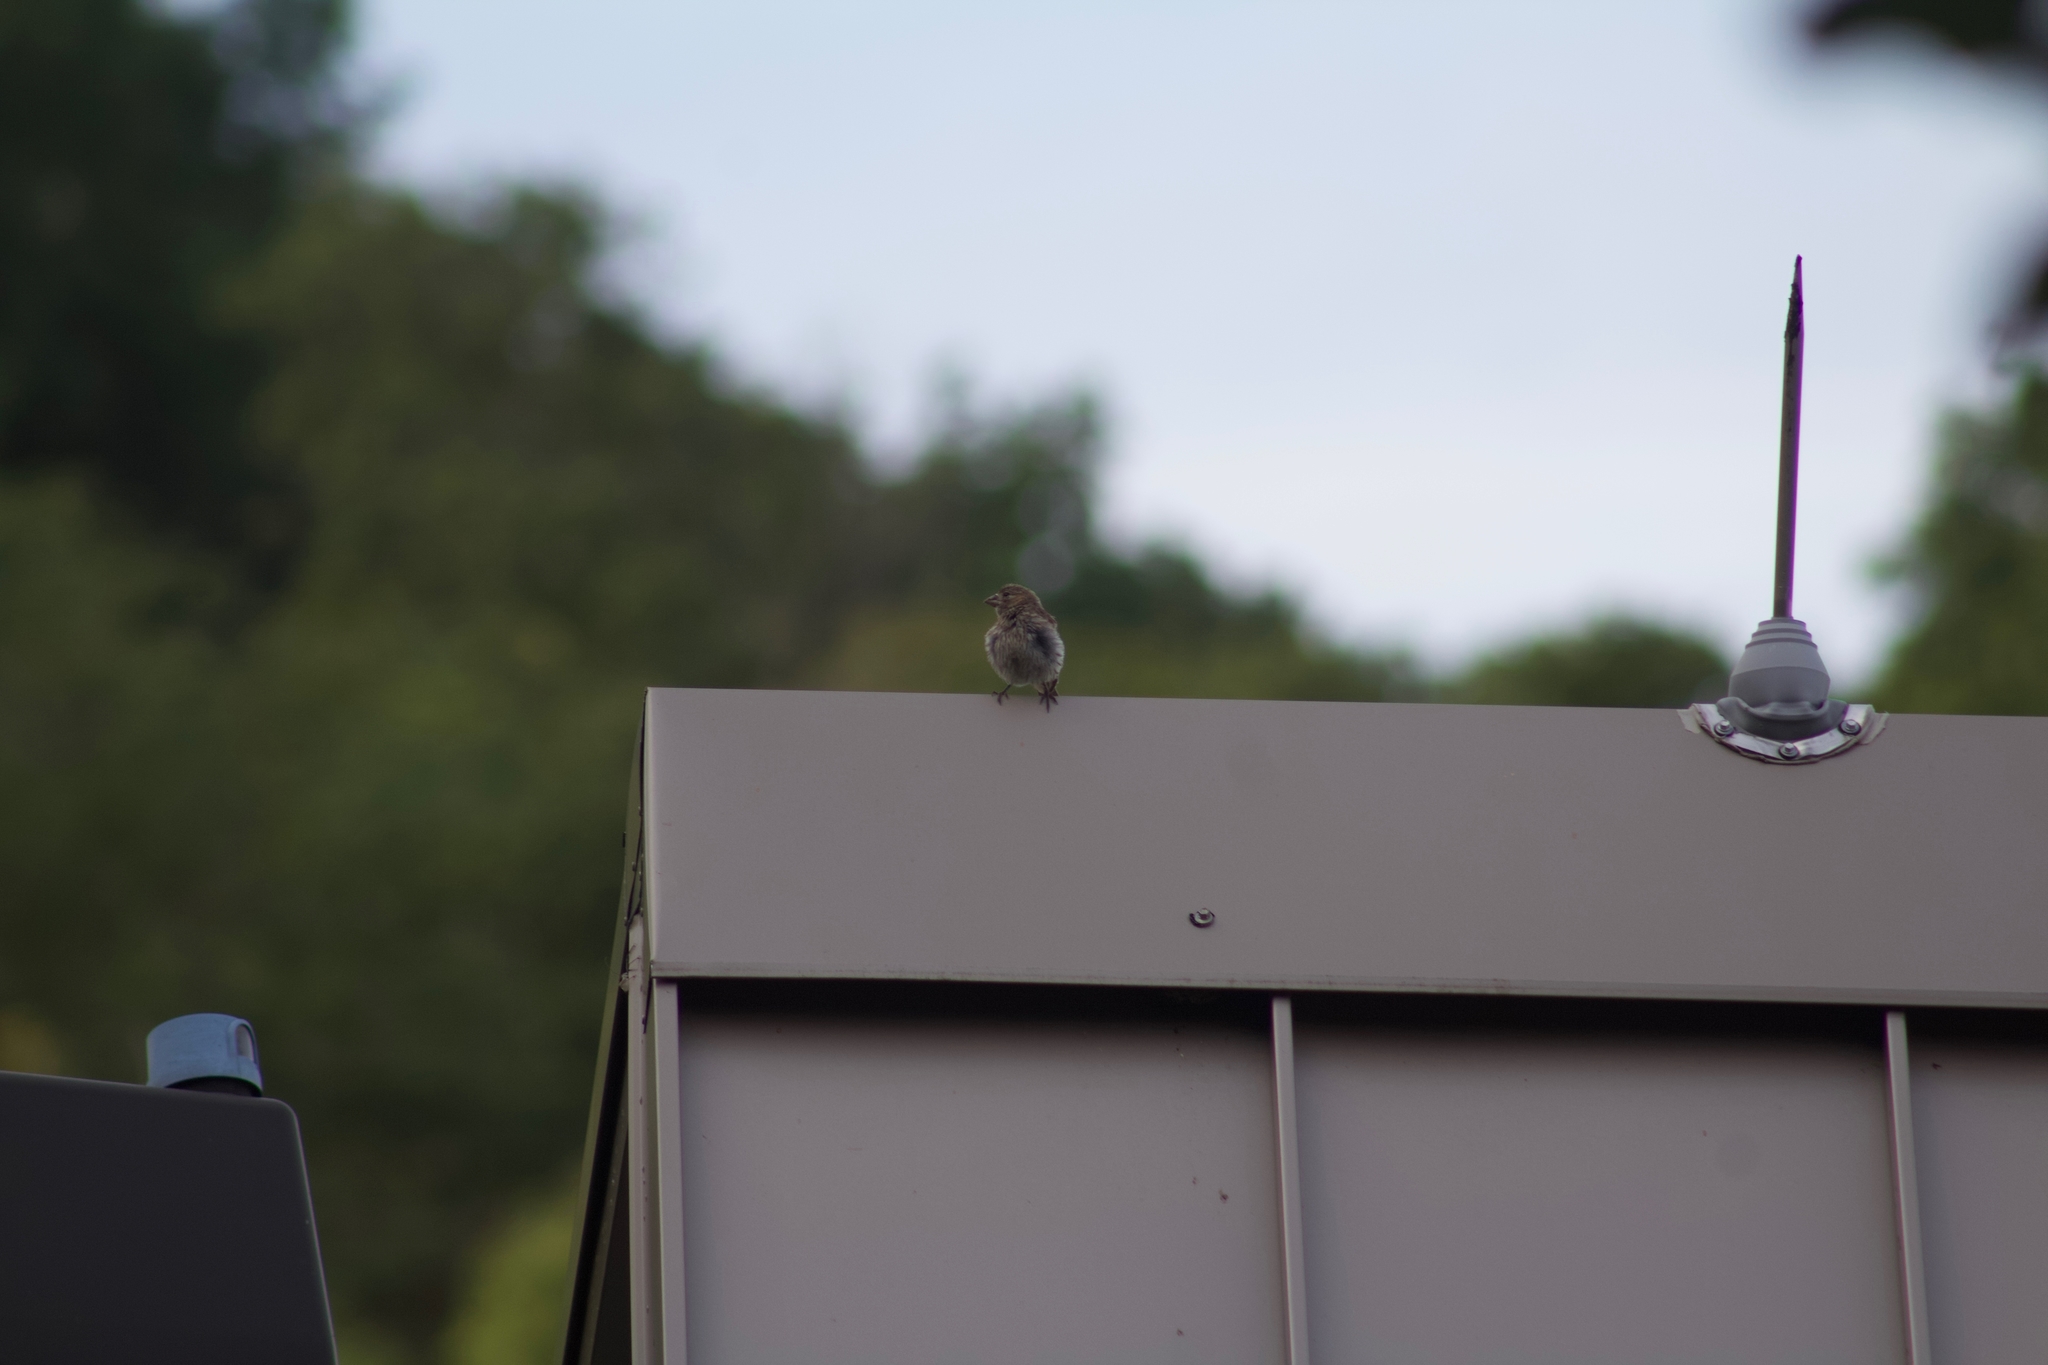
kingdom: Animalia
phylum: Chordata
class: Aves
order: Passeriformes
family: Fringillidae
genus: Haemorhous
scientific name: Haemorhous mexicanus
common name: House finch
